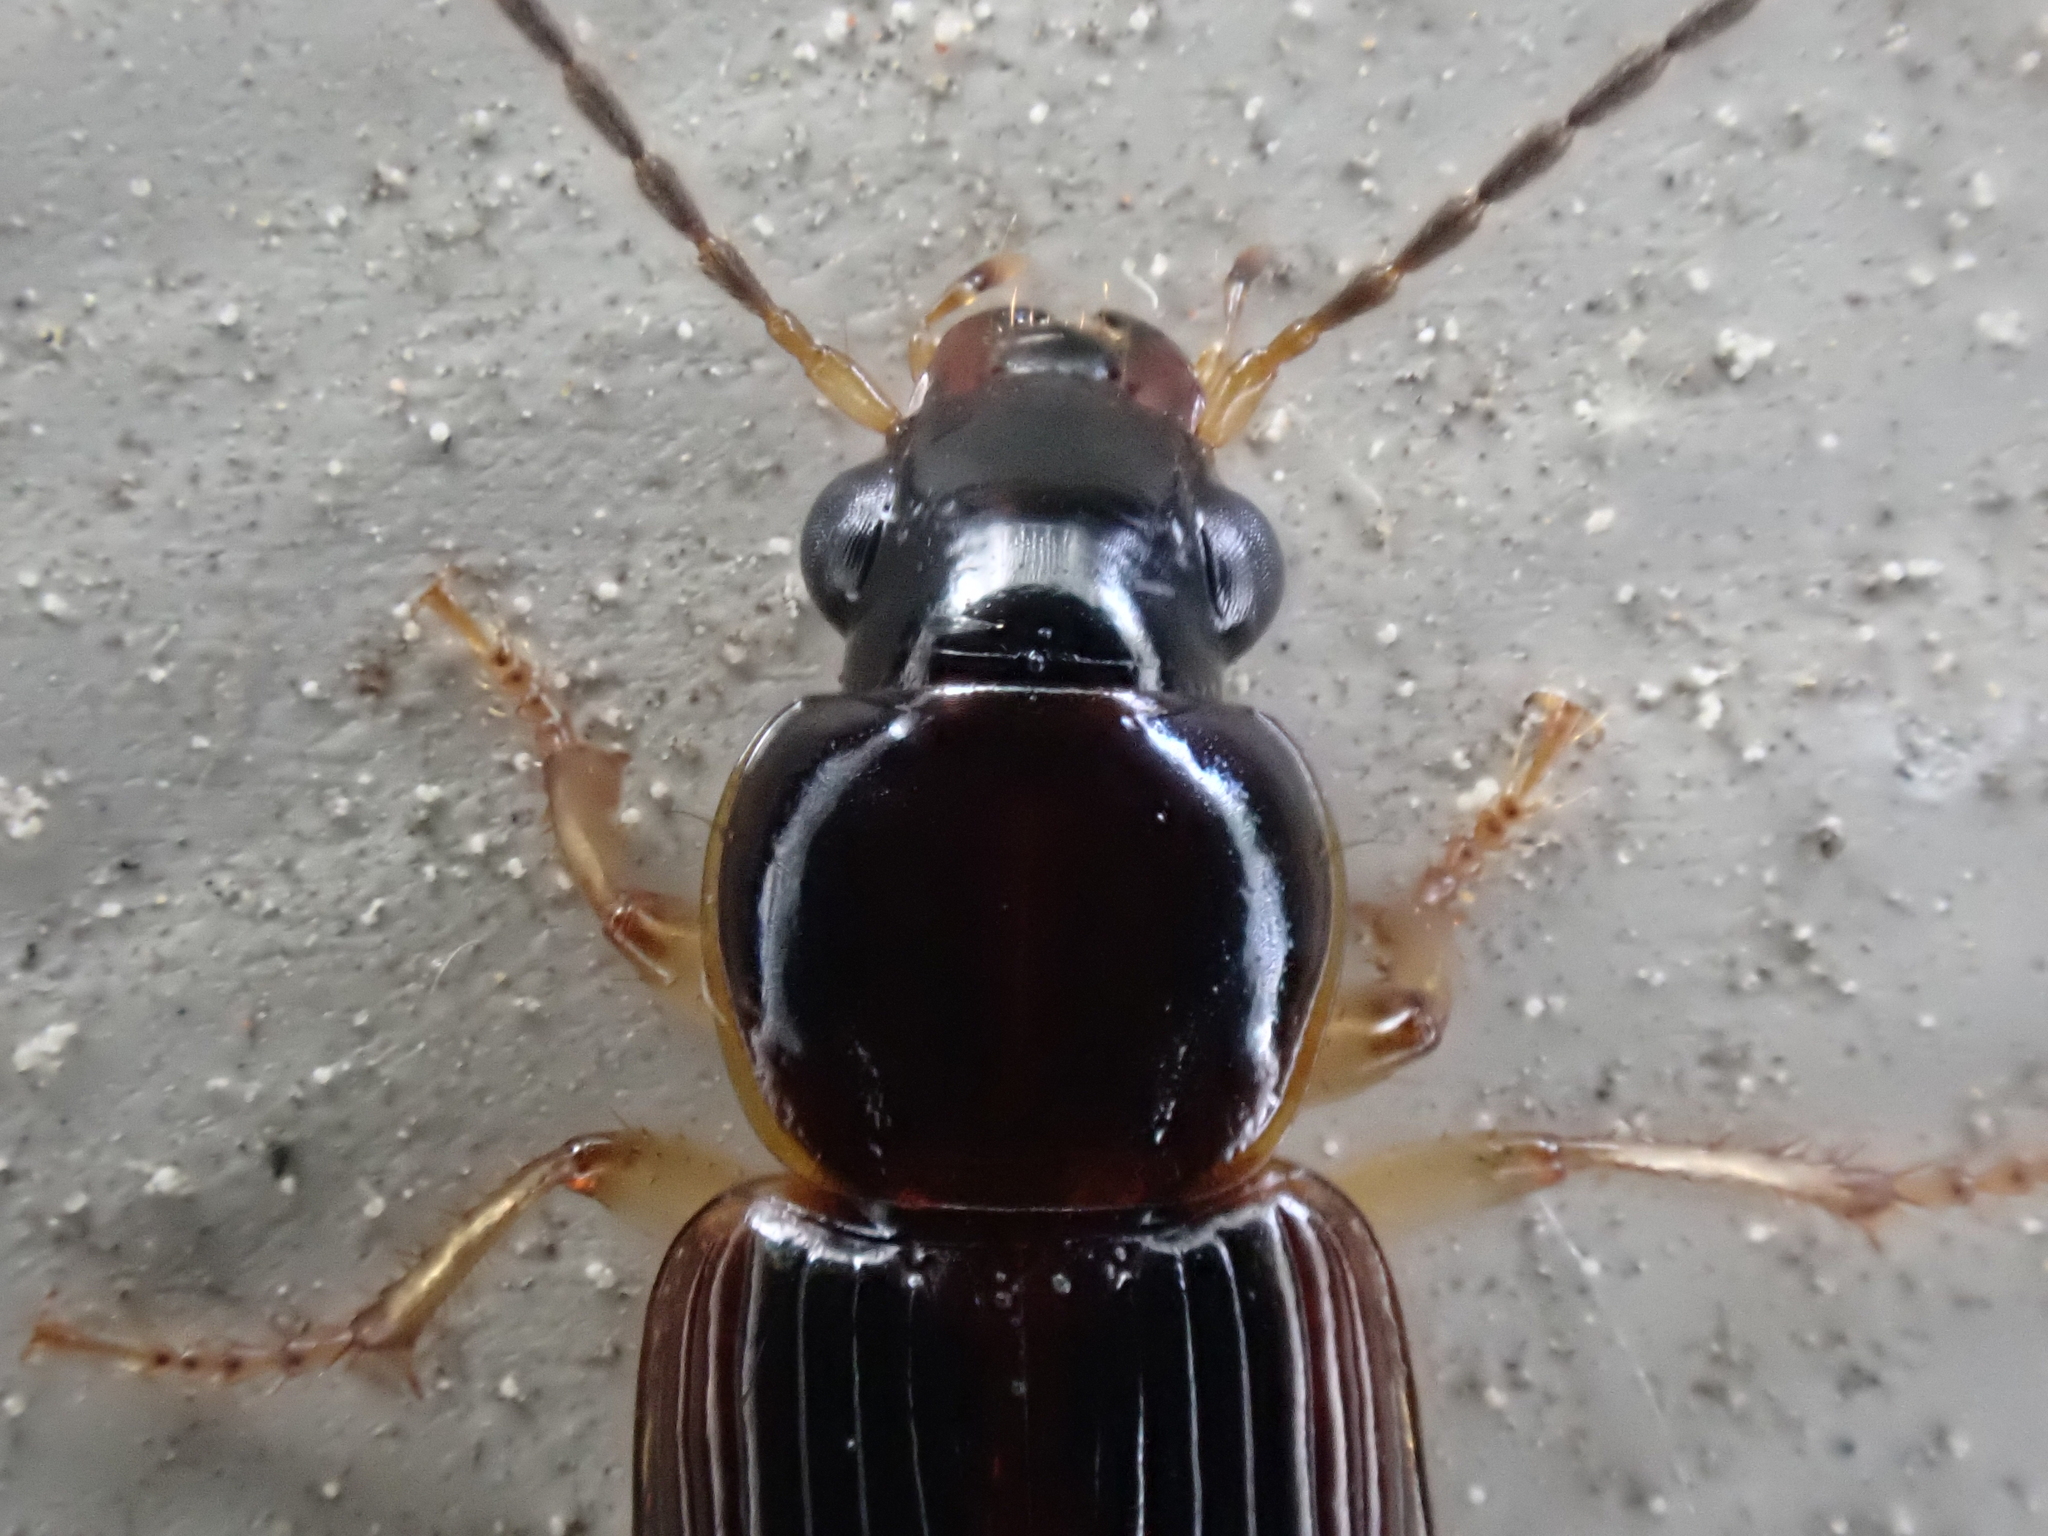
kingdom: Animalia
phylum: Arthropoda
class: Insecta
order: Coleoptera
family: Carabidae
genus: Stenolophus
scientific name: Stenolophus ochropezus
